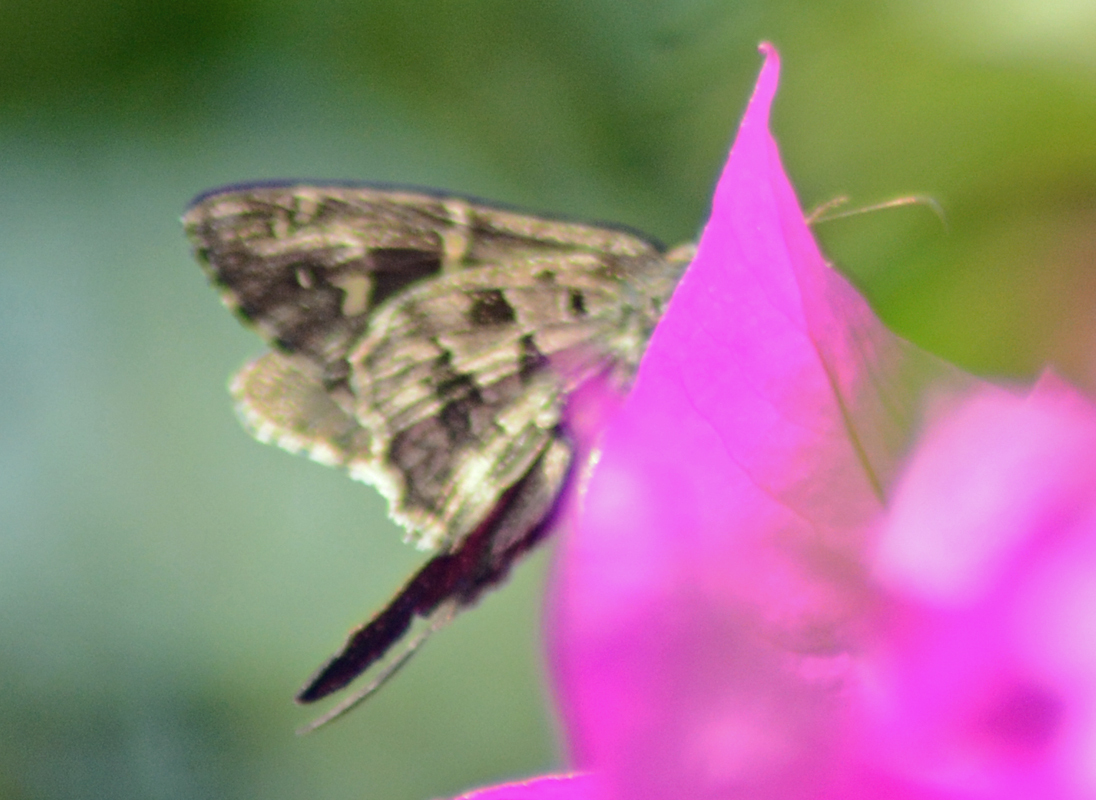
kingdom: Animalia
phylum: Arthropoda
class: Insecta
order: Lepidoptera
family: Hesperiidae
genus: Thorybes
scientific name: Thorybes
